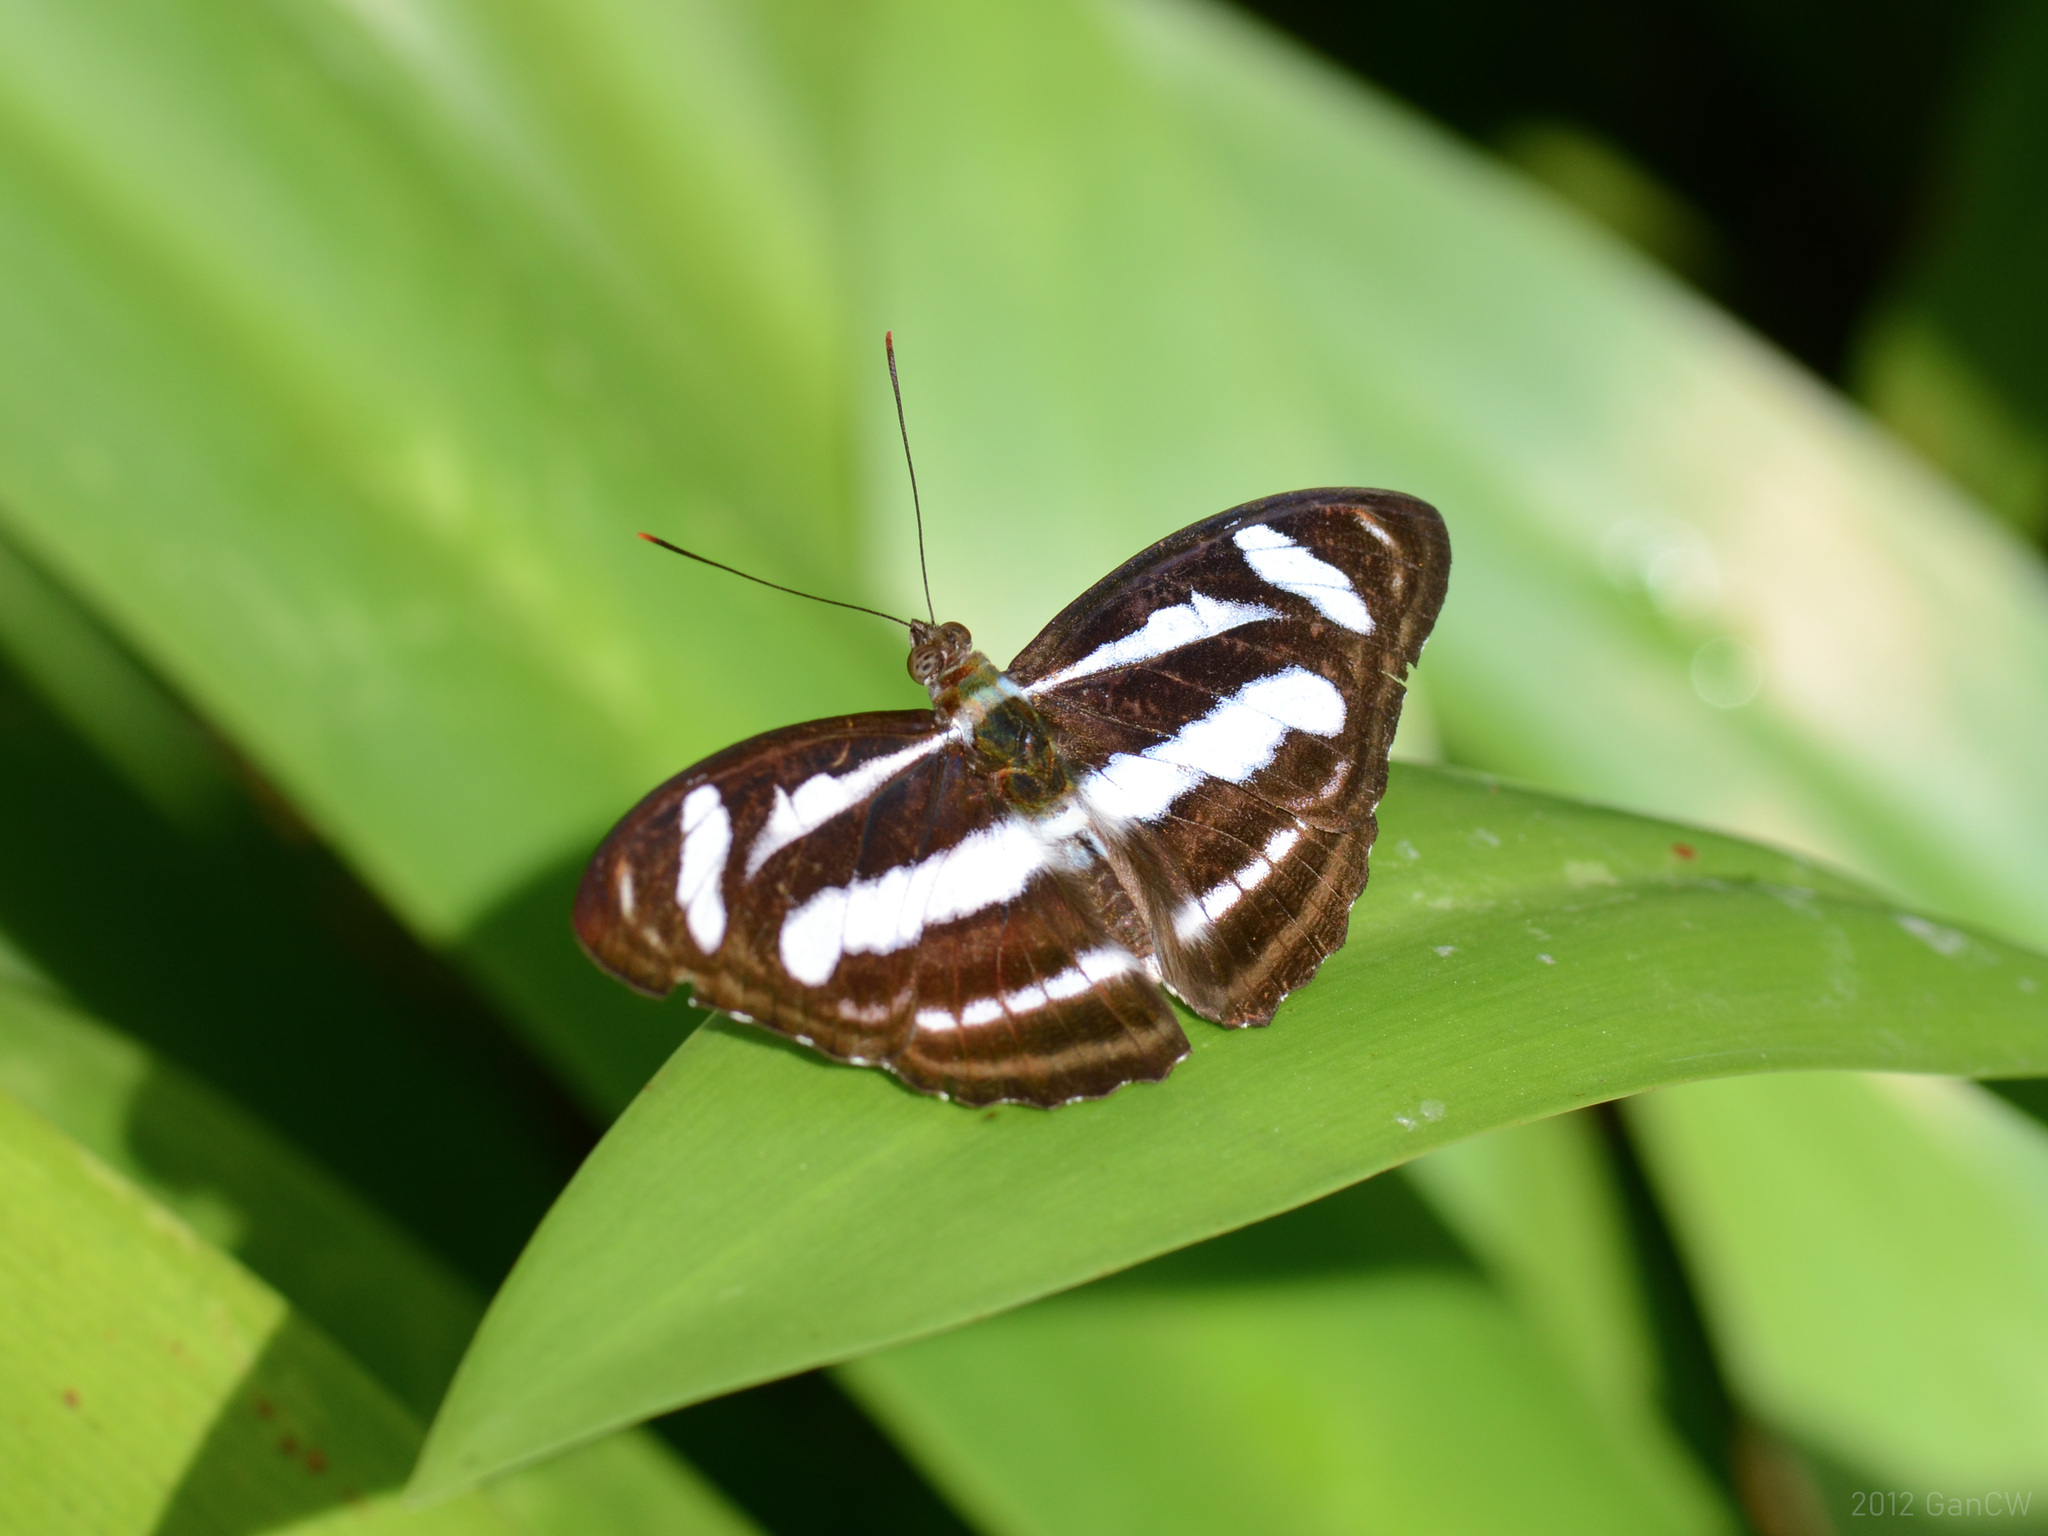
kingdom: Animalia
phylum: Arthropoda
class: Insecta
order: Lepidoptera
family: Nymphalidae
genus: Parathyma
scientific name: Parathyma nefte
